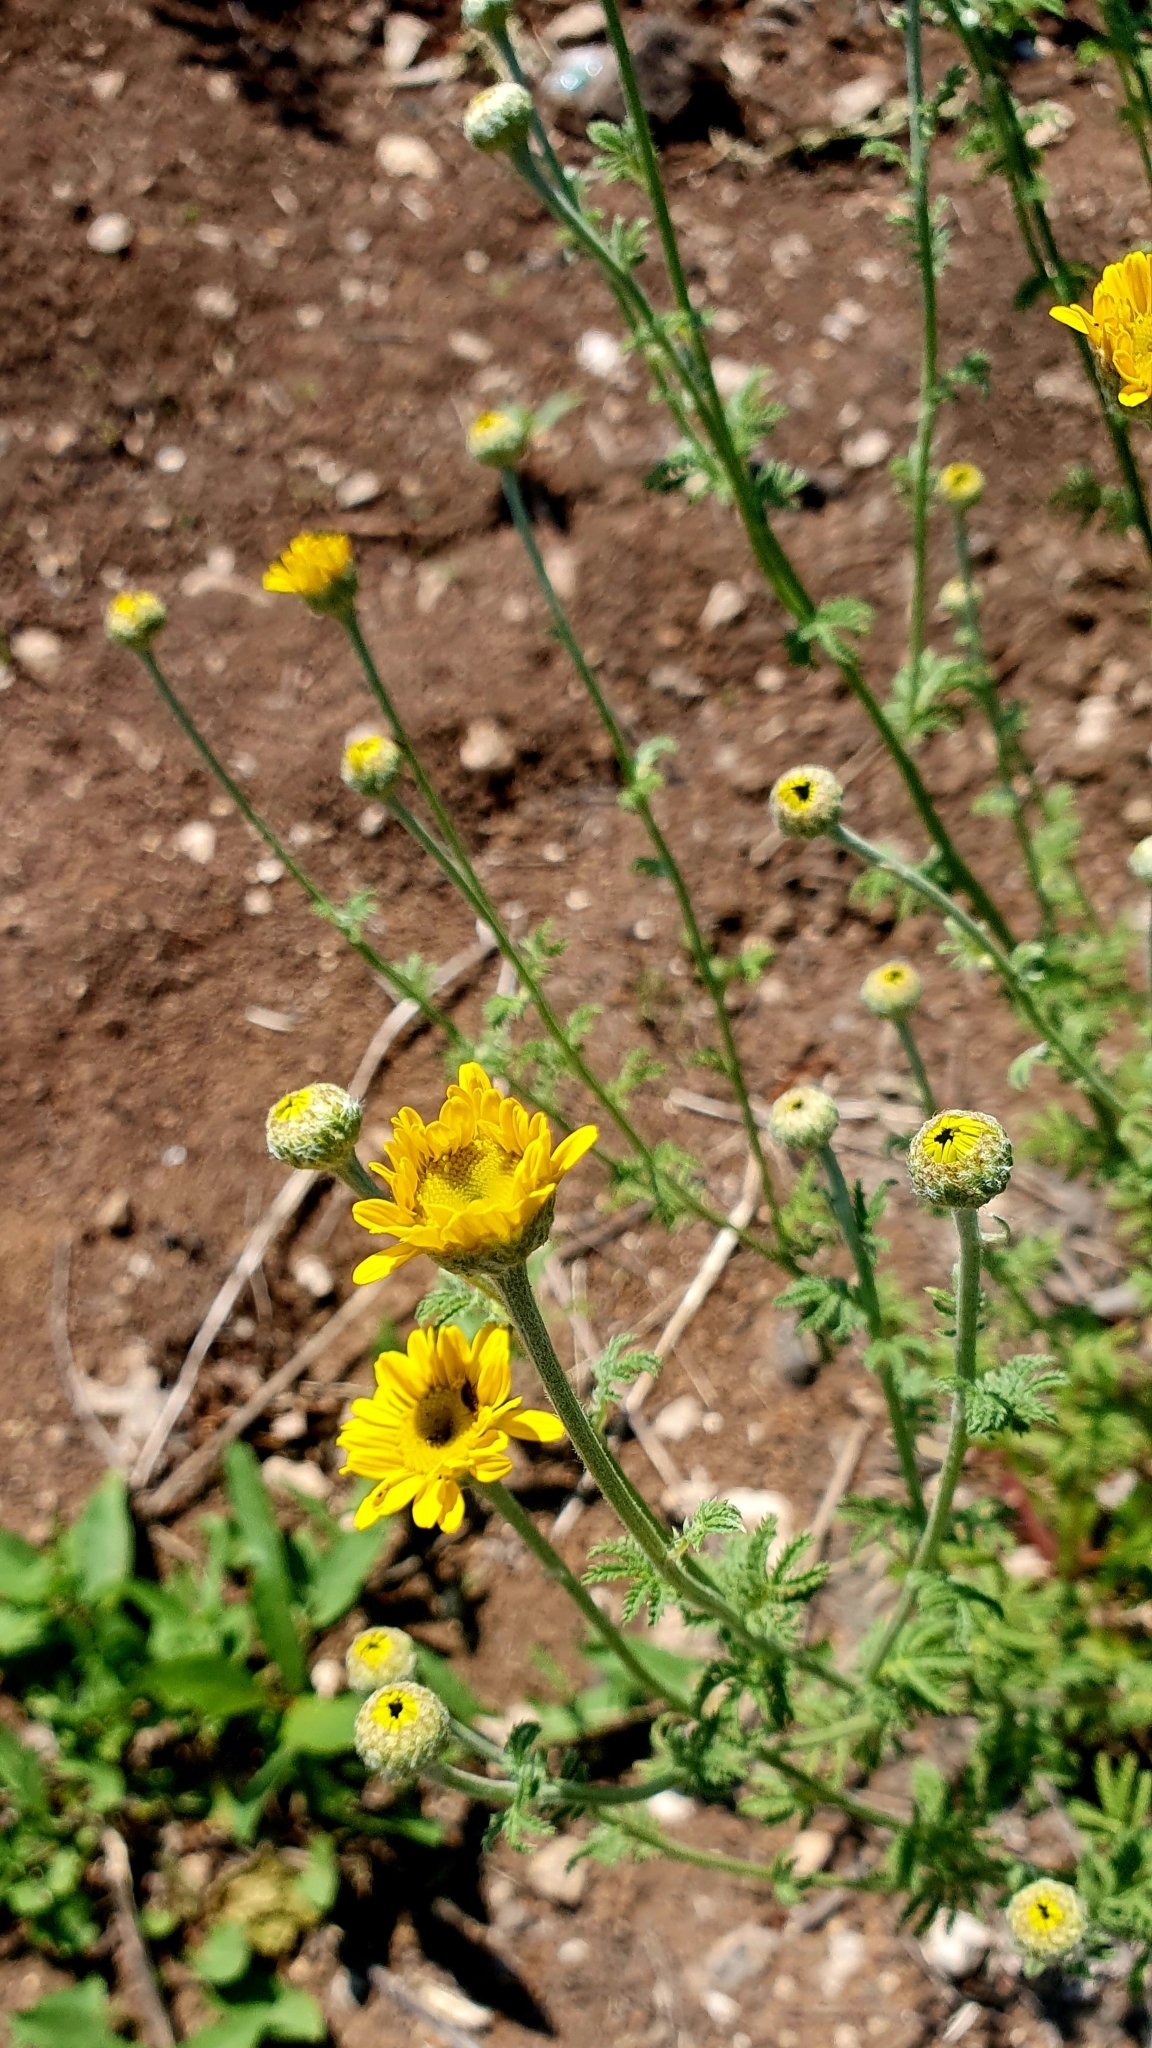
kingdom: Plantae
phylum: Tracheophyta
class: Magnoliopsida
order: Asterales
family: Asteraceae
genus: Cota
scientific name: Cota tinctoria
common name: Golden chamomile
